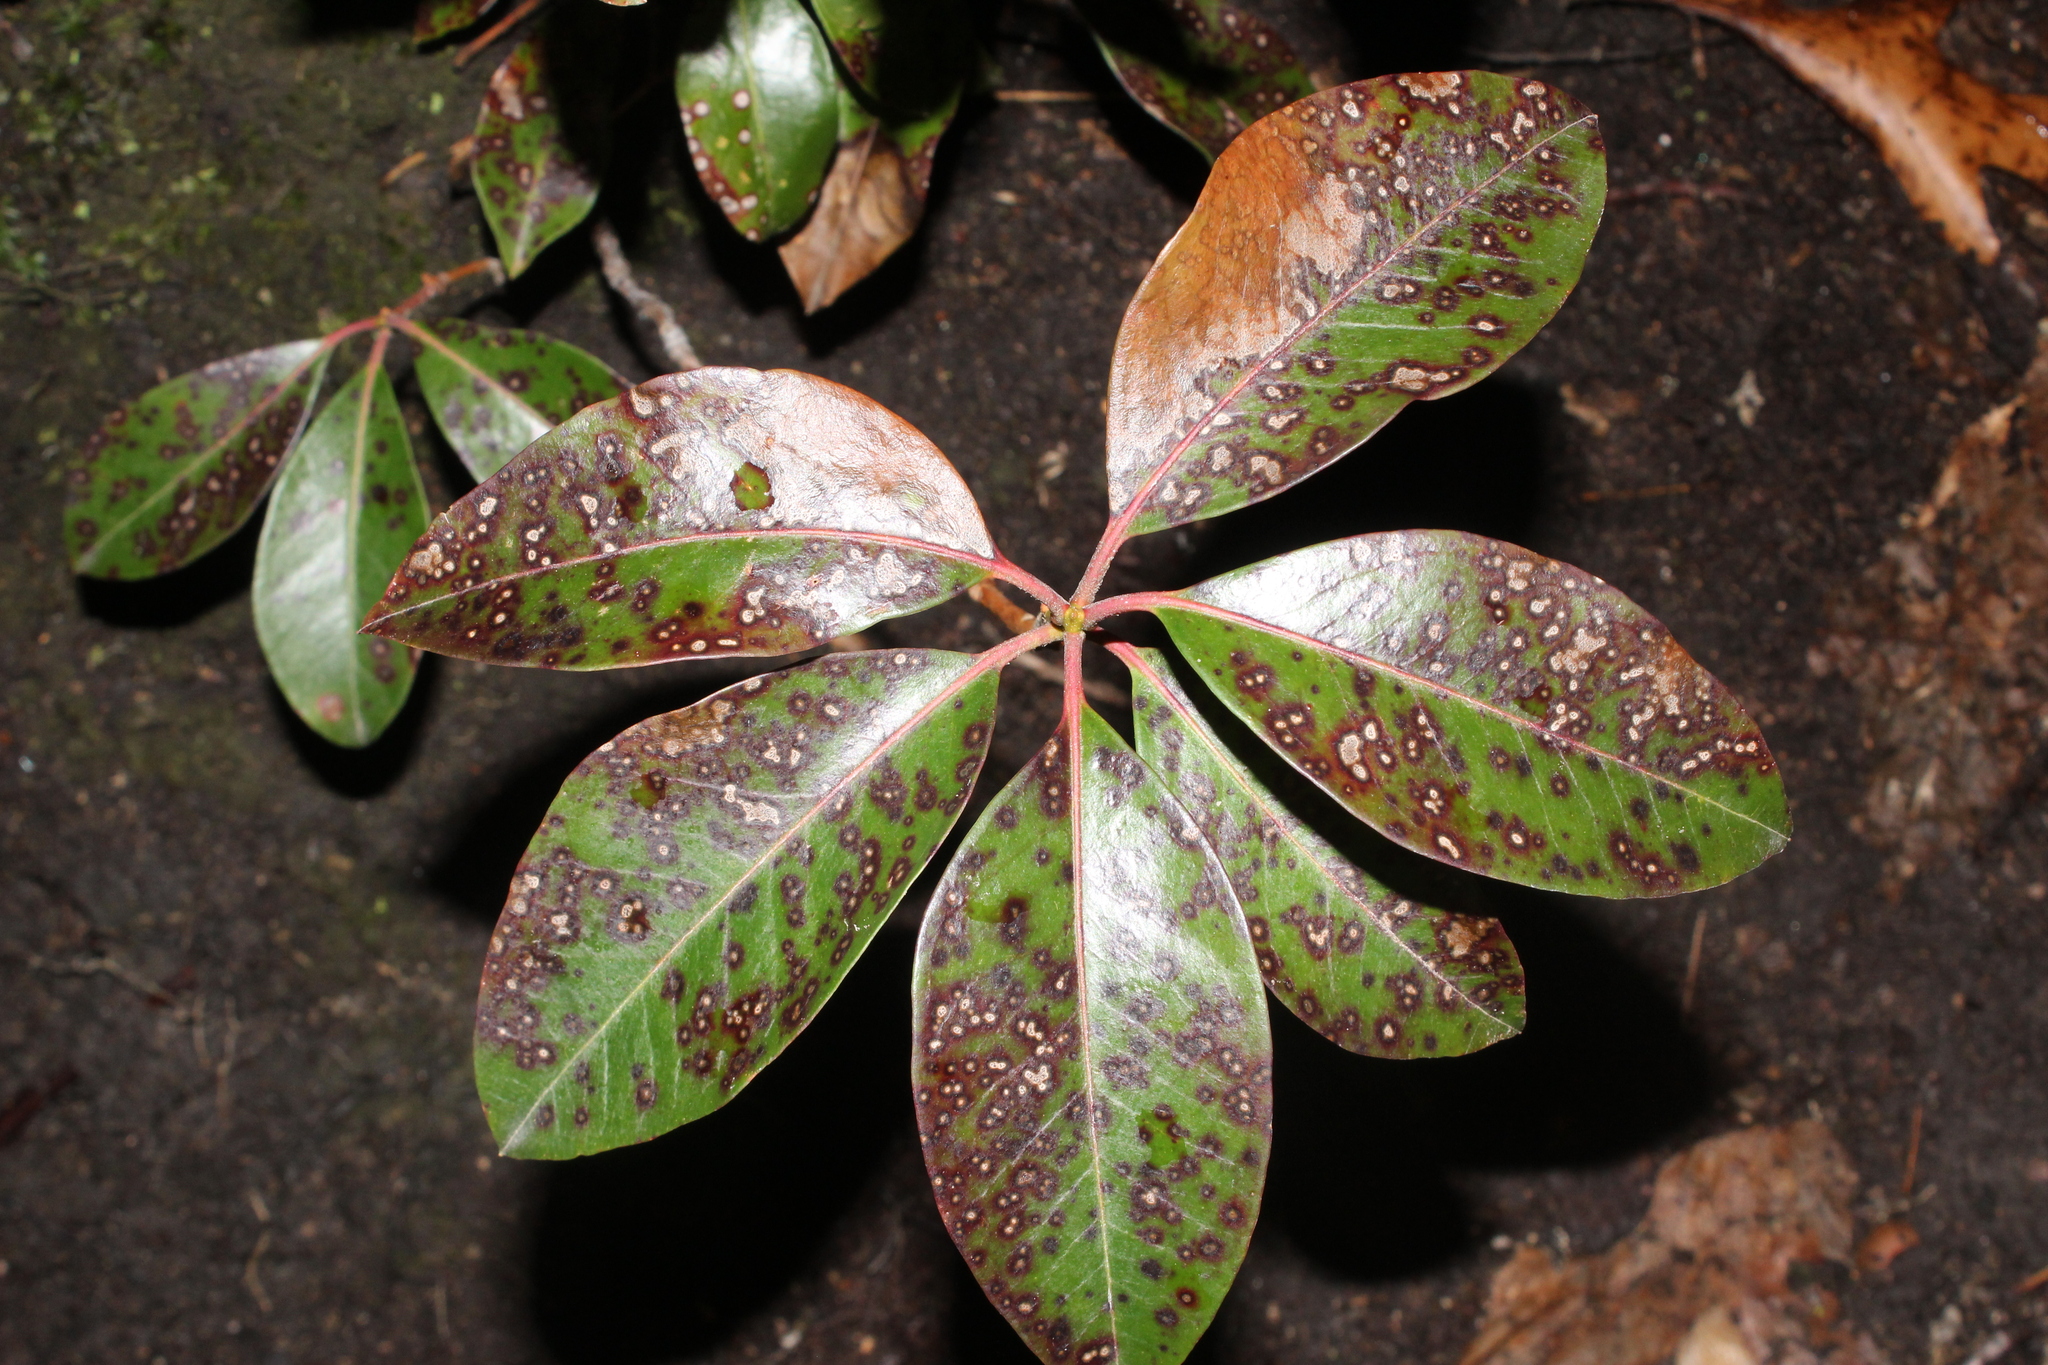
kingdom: Plantae
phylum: Tracheophyta
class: Magnoliopsida
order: Ericales
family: Ericaceae
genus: Kalmia
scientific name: Kalmia latifolia
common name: Mountain-laurel
